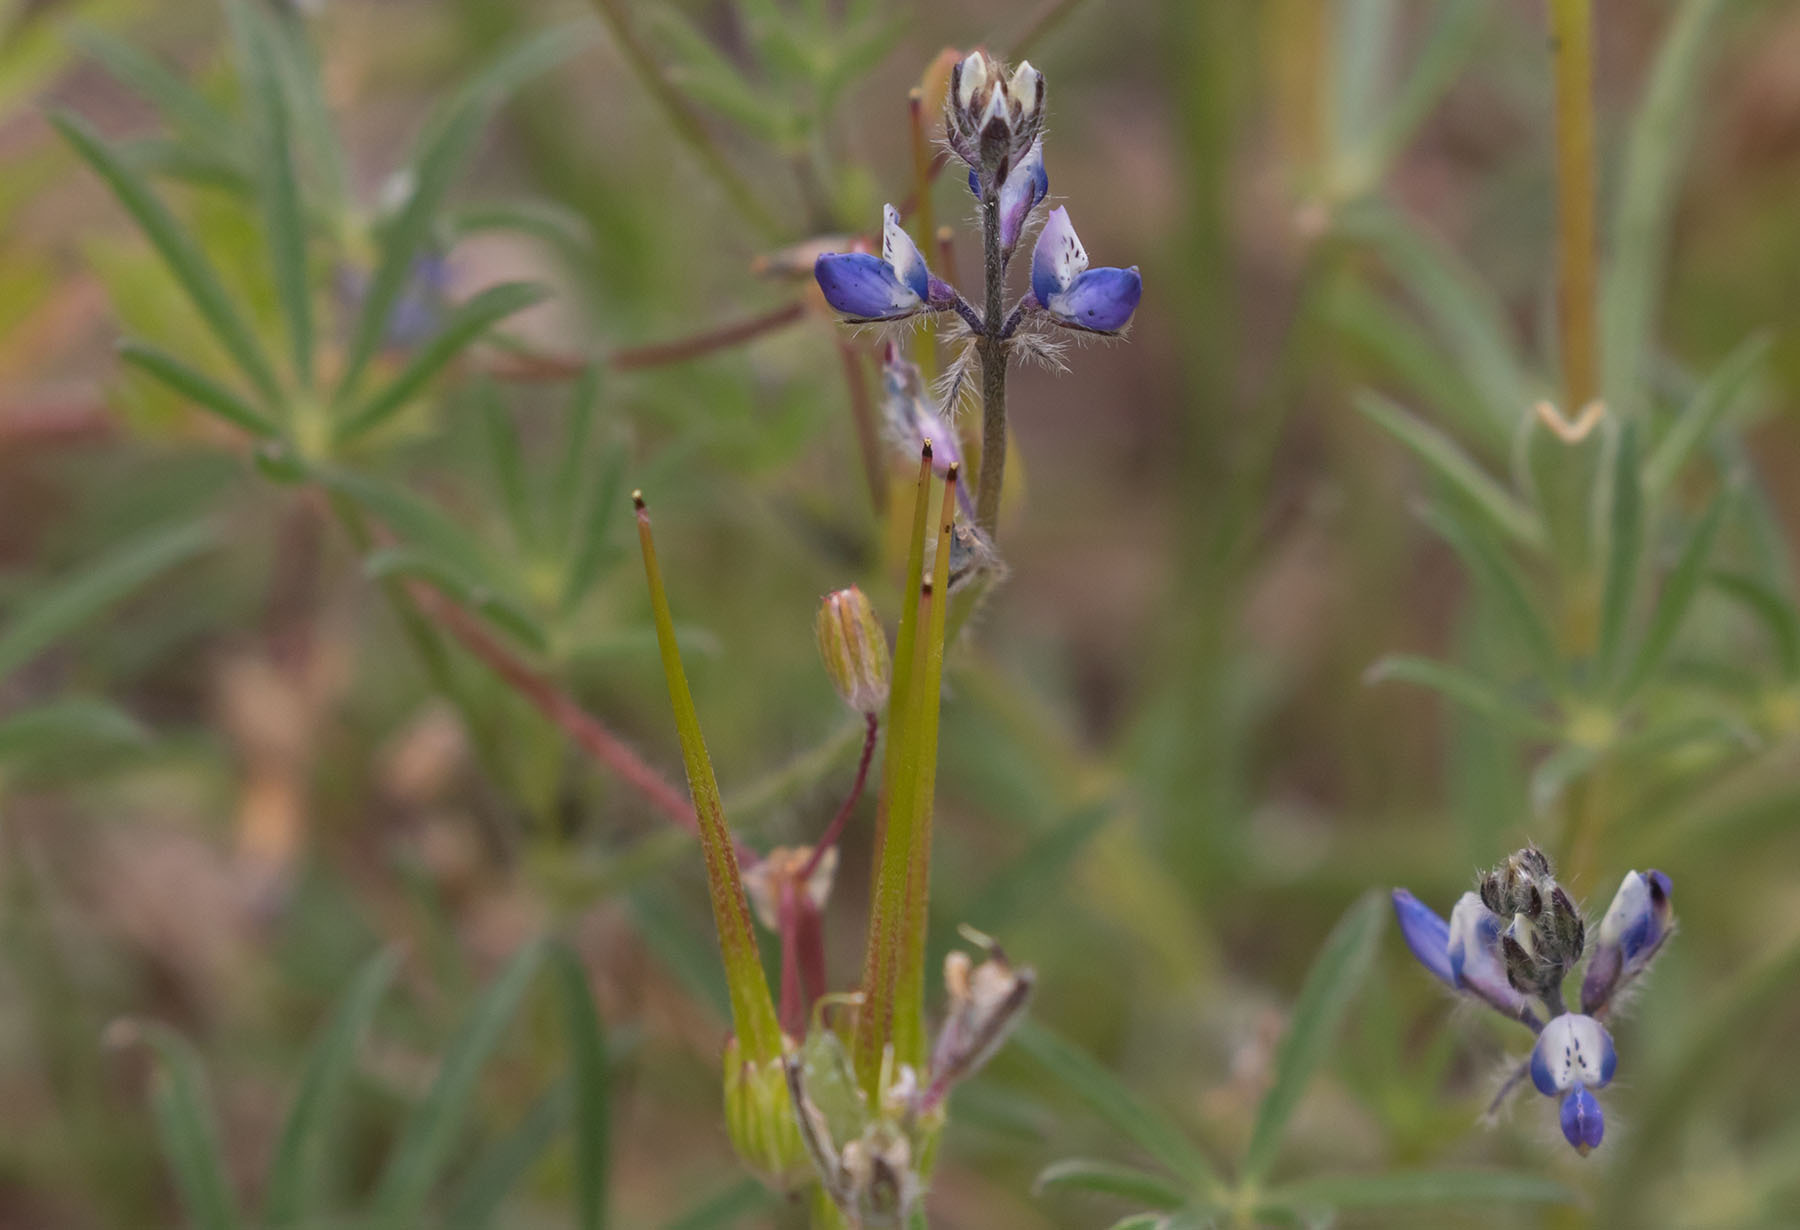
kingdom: Plantae
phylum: Tracheophyta
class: Magnoliopsida
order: Fabales
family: Fabaceae
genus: Lupinus
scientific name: Lupinus bicolor
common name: Miniature lupine
